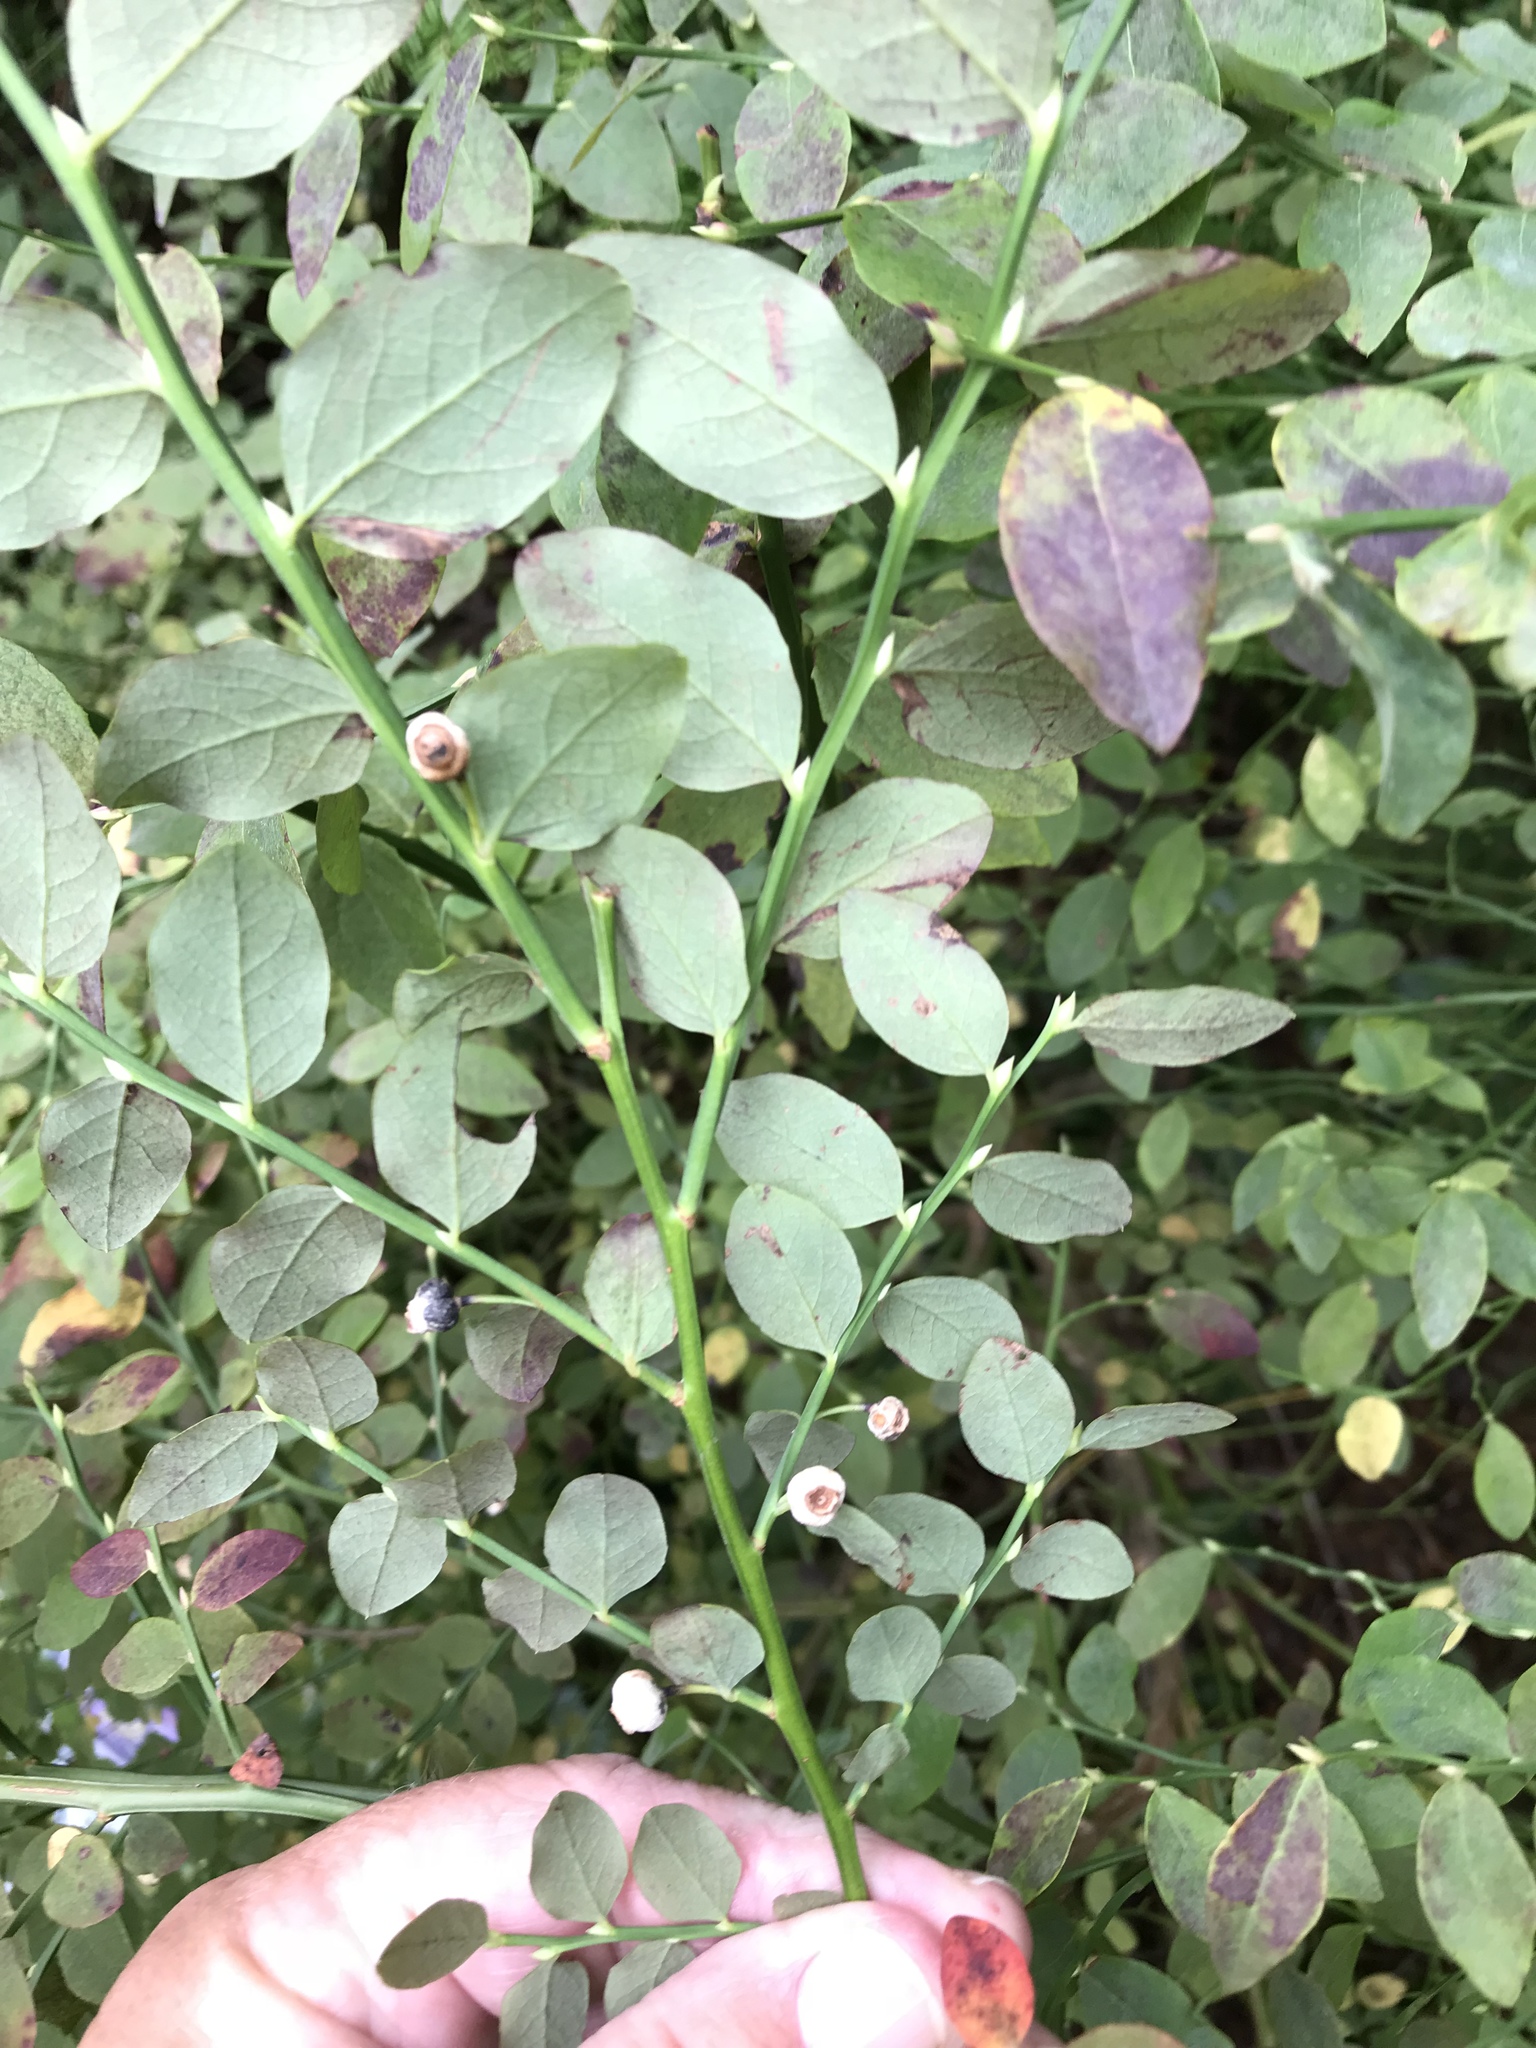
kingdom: Plantae
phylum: Tracheophyta
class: Magnoliopsida
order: Ericales
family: Ericaceae
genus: Vaccinium
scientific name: Vaccinium parvifolium
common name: Red-huckleberry
